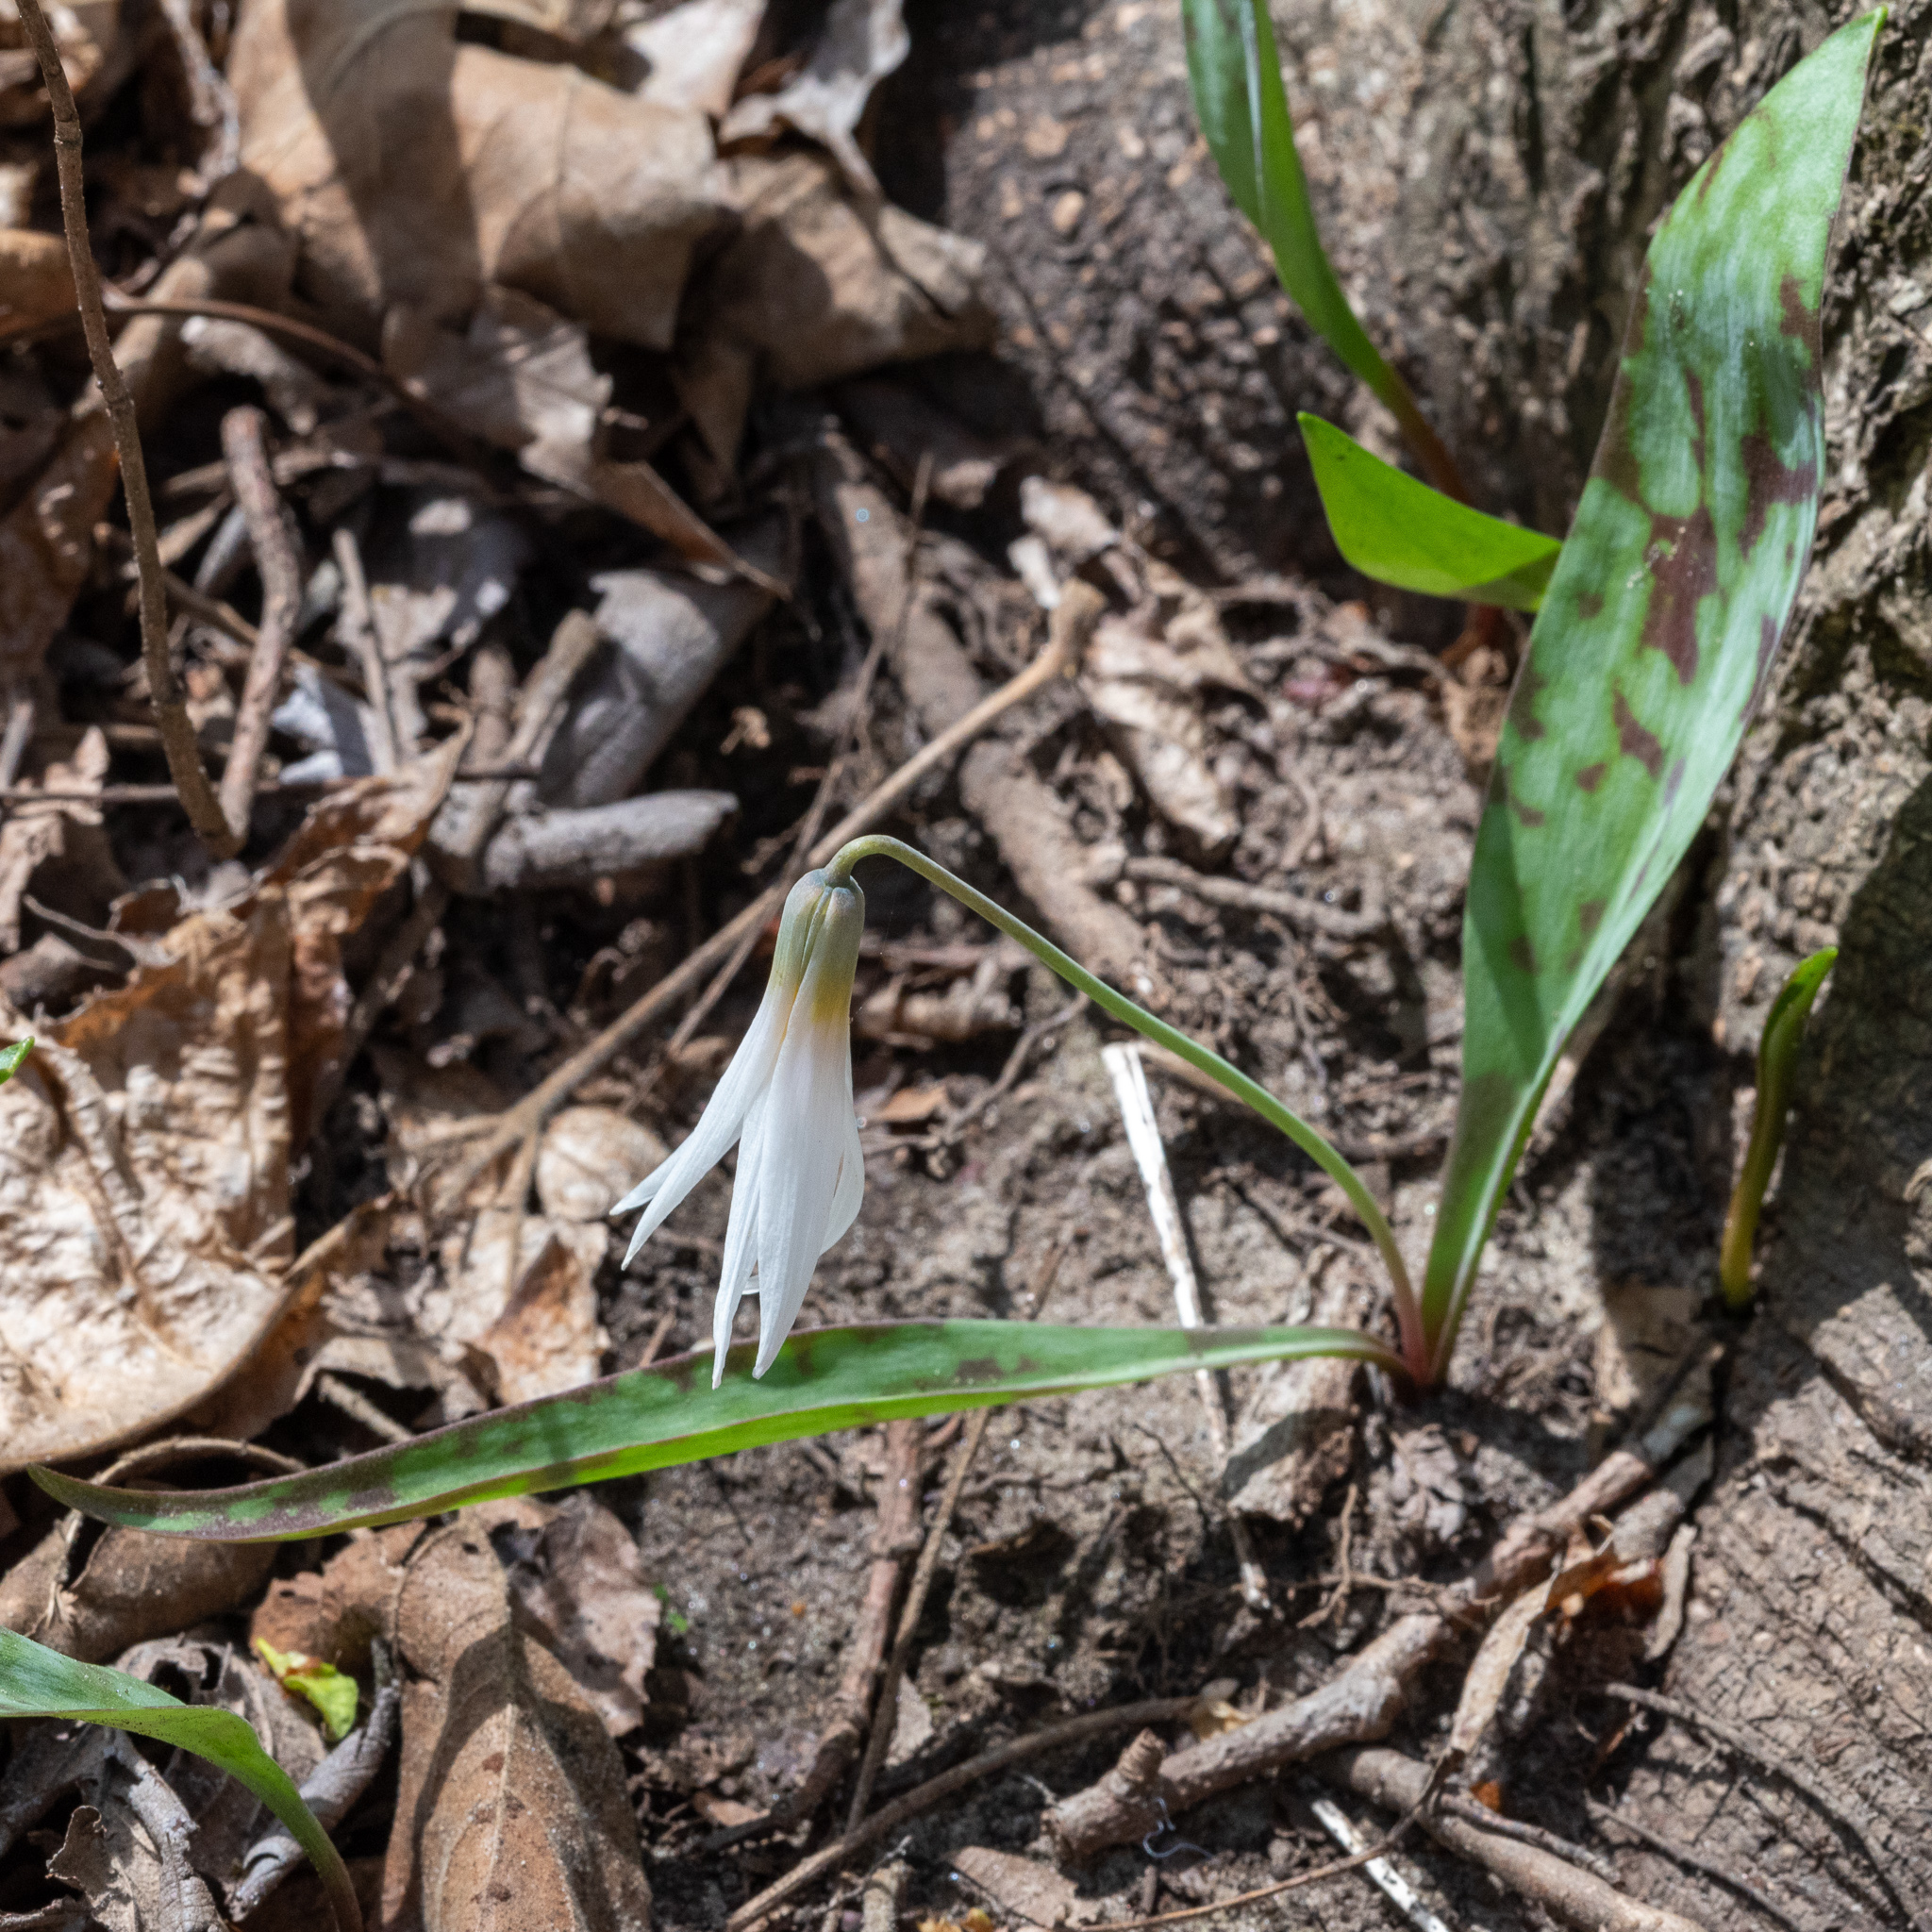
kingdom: Plantae
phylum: Tracheophyta
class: Liliopsida
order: Liliales
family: Liliaceae
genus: Erythronium
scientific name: Erythronium albidum
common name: White trout-lily
